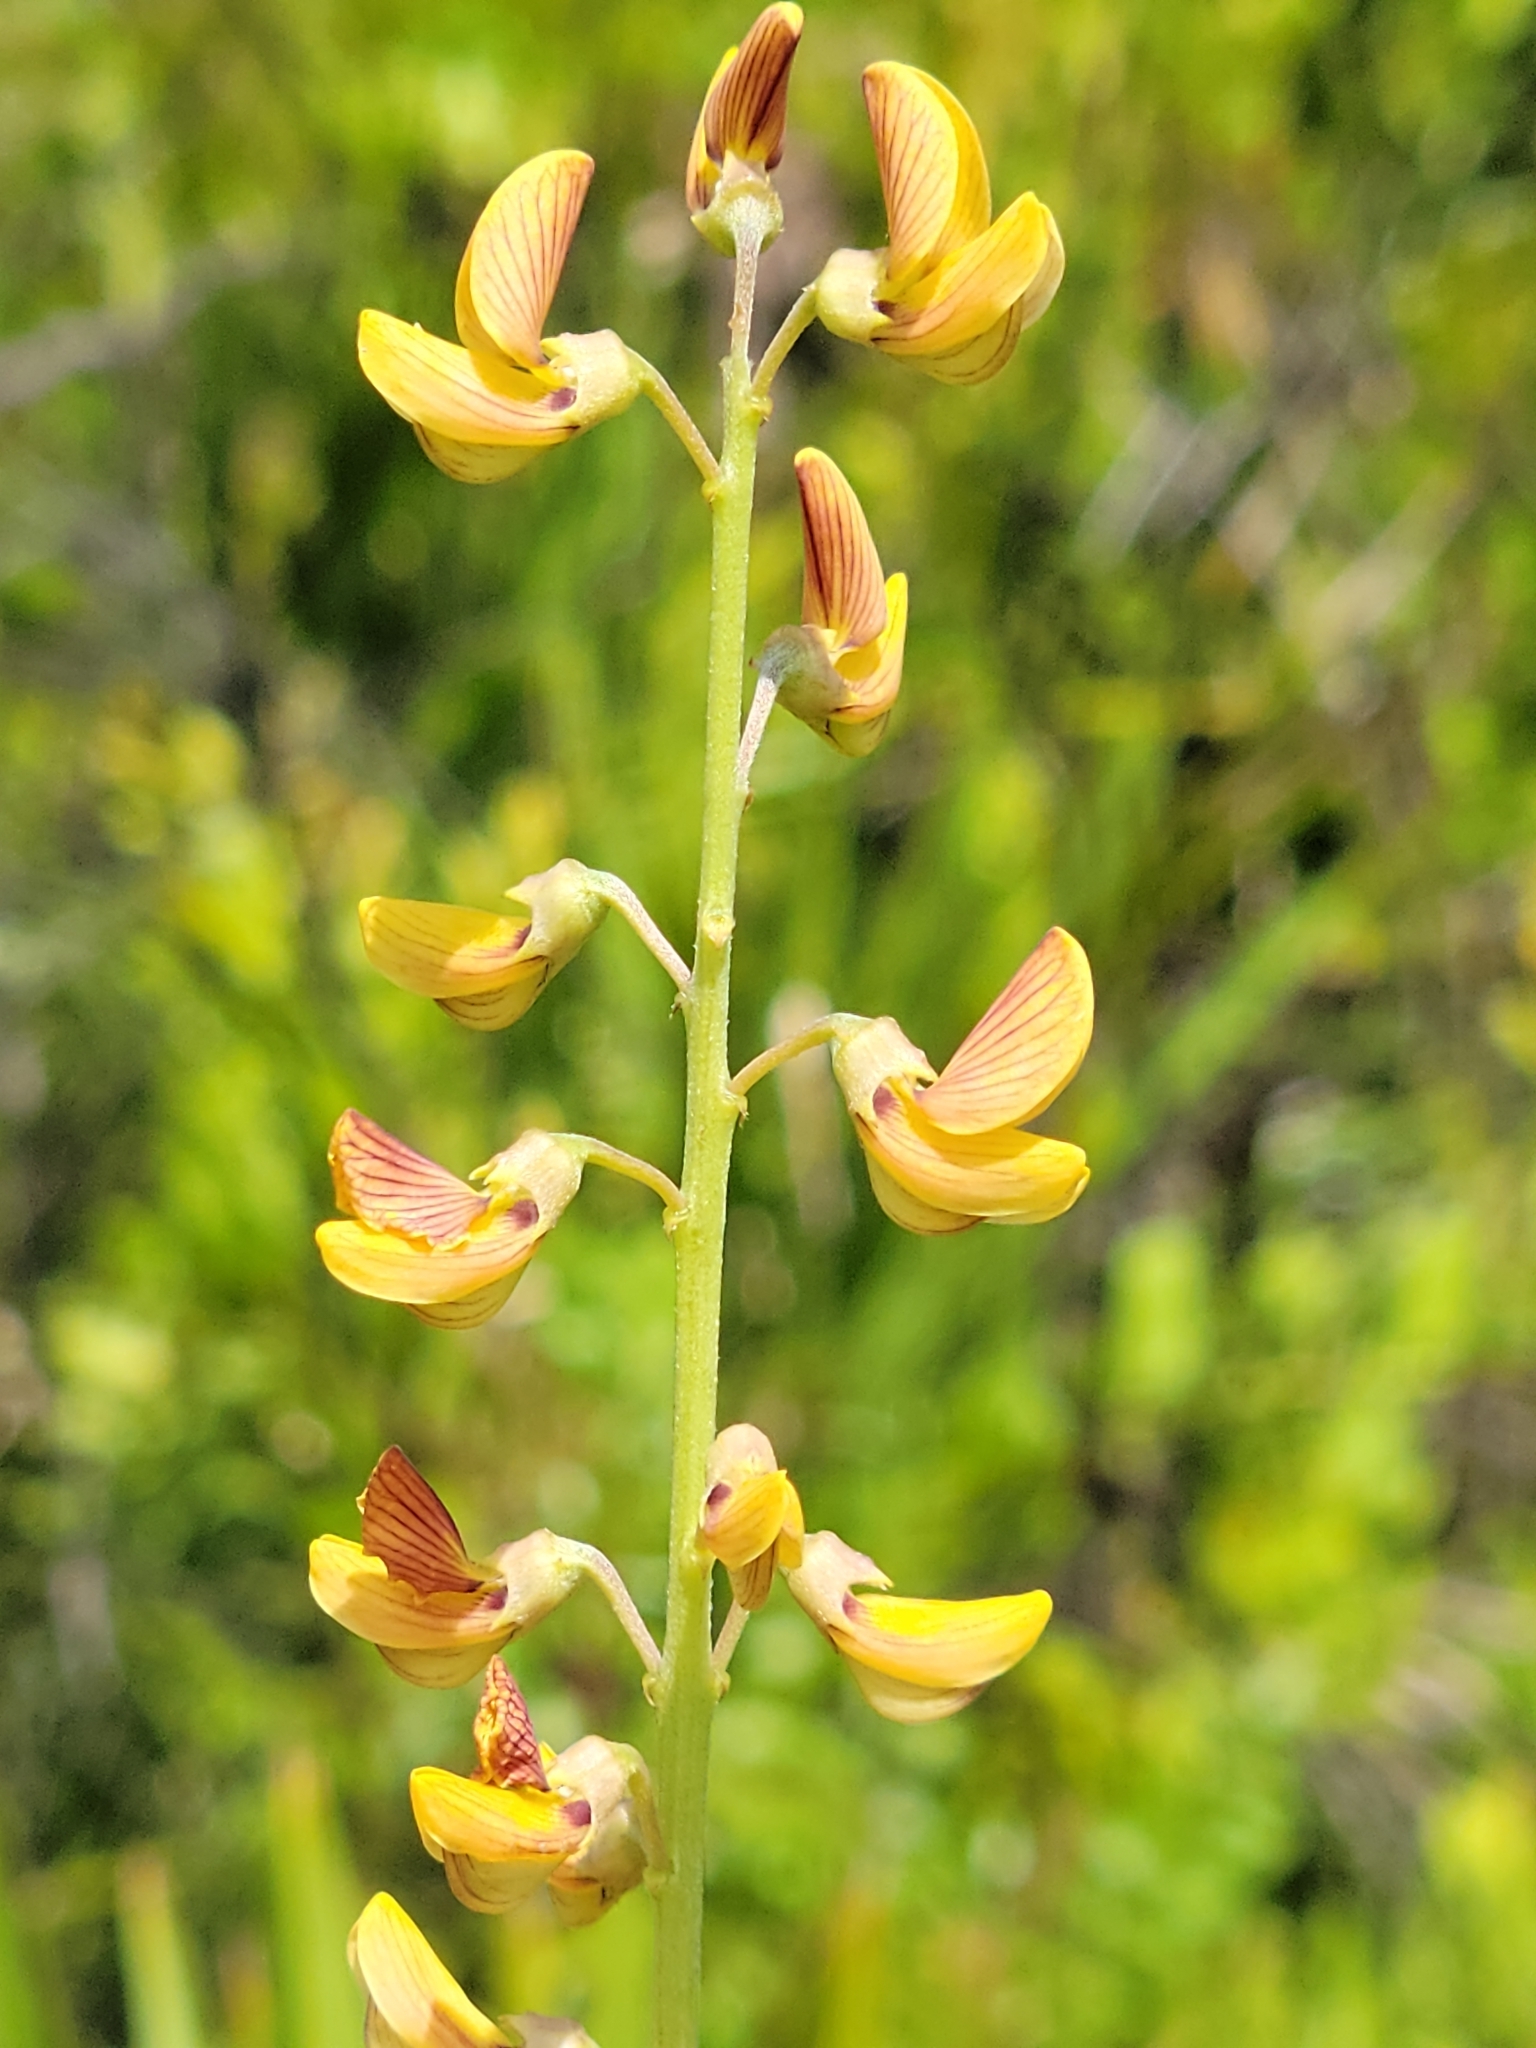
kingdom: Plantae
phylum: Tracheophyta
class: Magnoliopsida
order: Fabales
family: Fabaceae
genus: Crotalaria
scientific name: Crotalaria lanceolata
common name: Lanceleaf rattlebox
